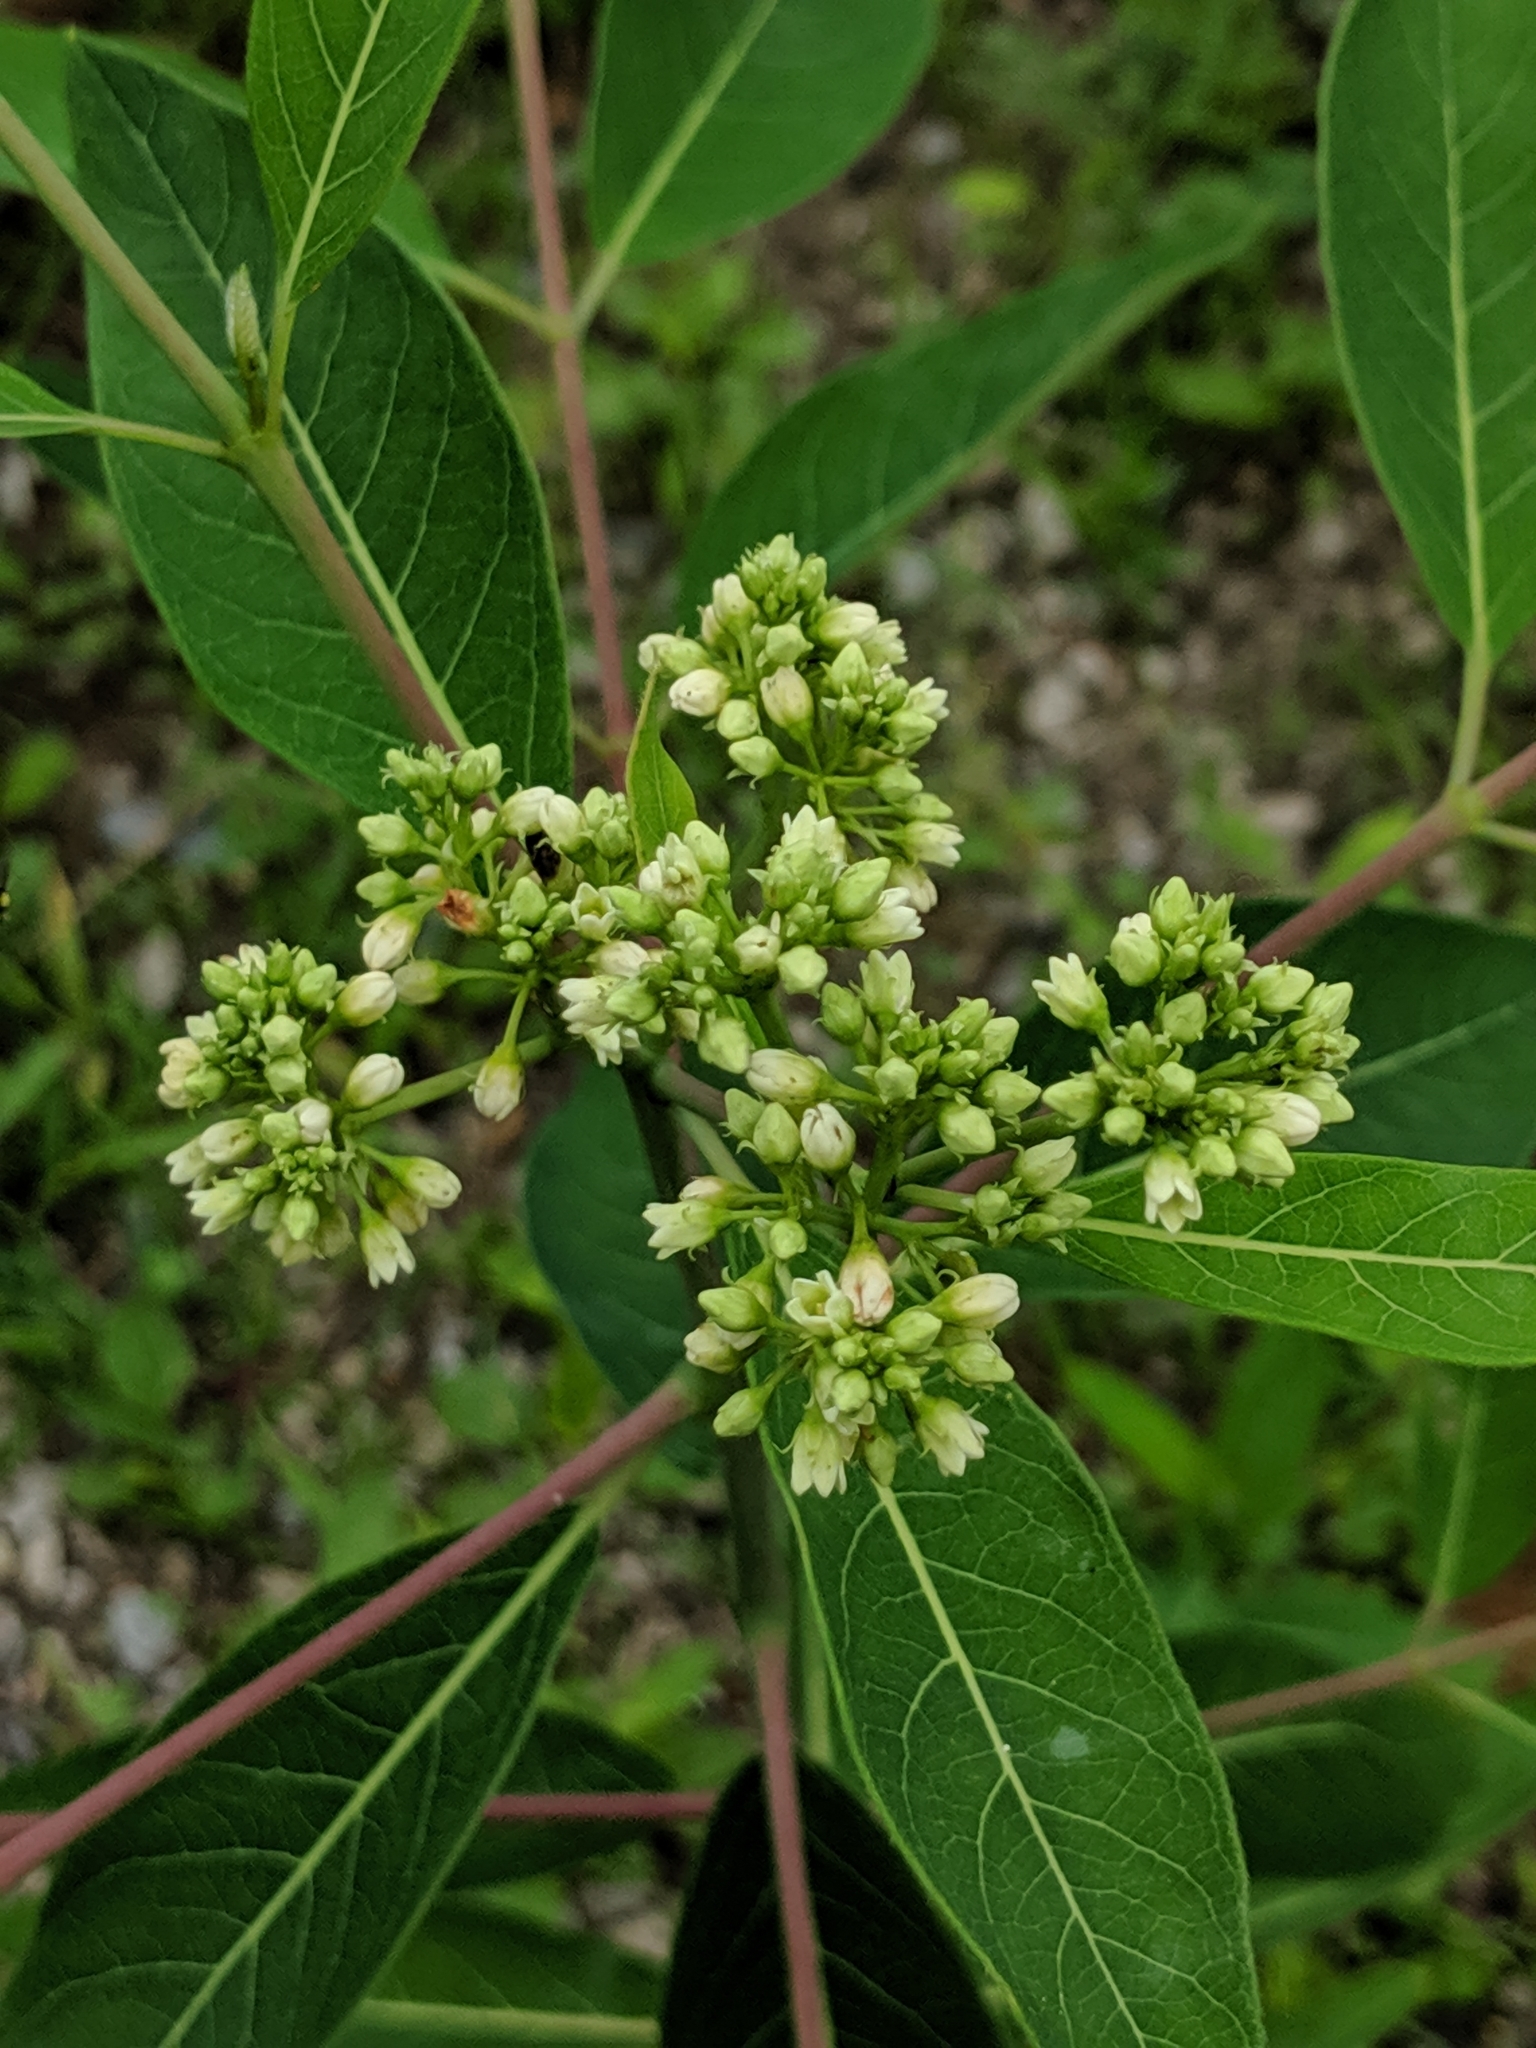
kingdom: Plantae
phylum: Tracheophyta
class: Magnoliopsida
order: Gentianales
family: Apocynaceae
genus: Apocynum
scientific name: Apocynum cannabinum
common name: Hemp dogbane
